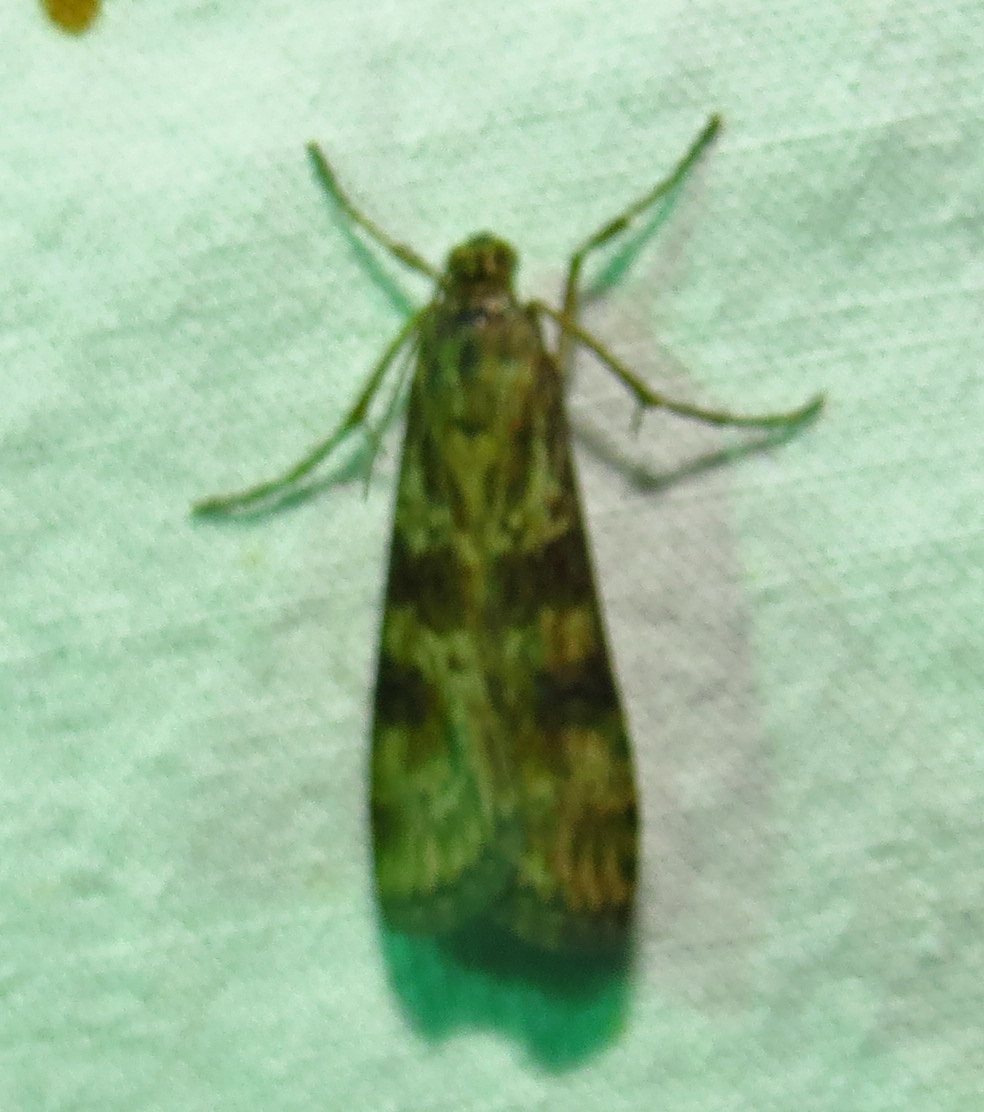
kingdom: Animalia
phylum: Arthropoda
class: Insecta
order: Lepidoptera
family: Crambidae
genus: Nomophila
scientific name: Nomophila nearctica
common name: American rush veneer
